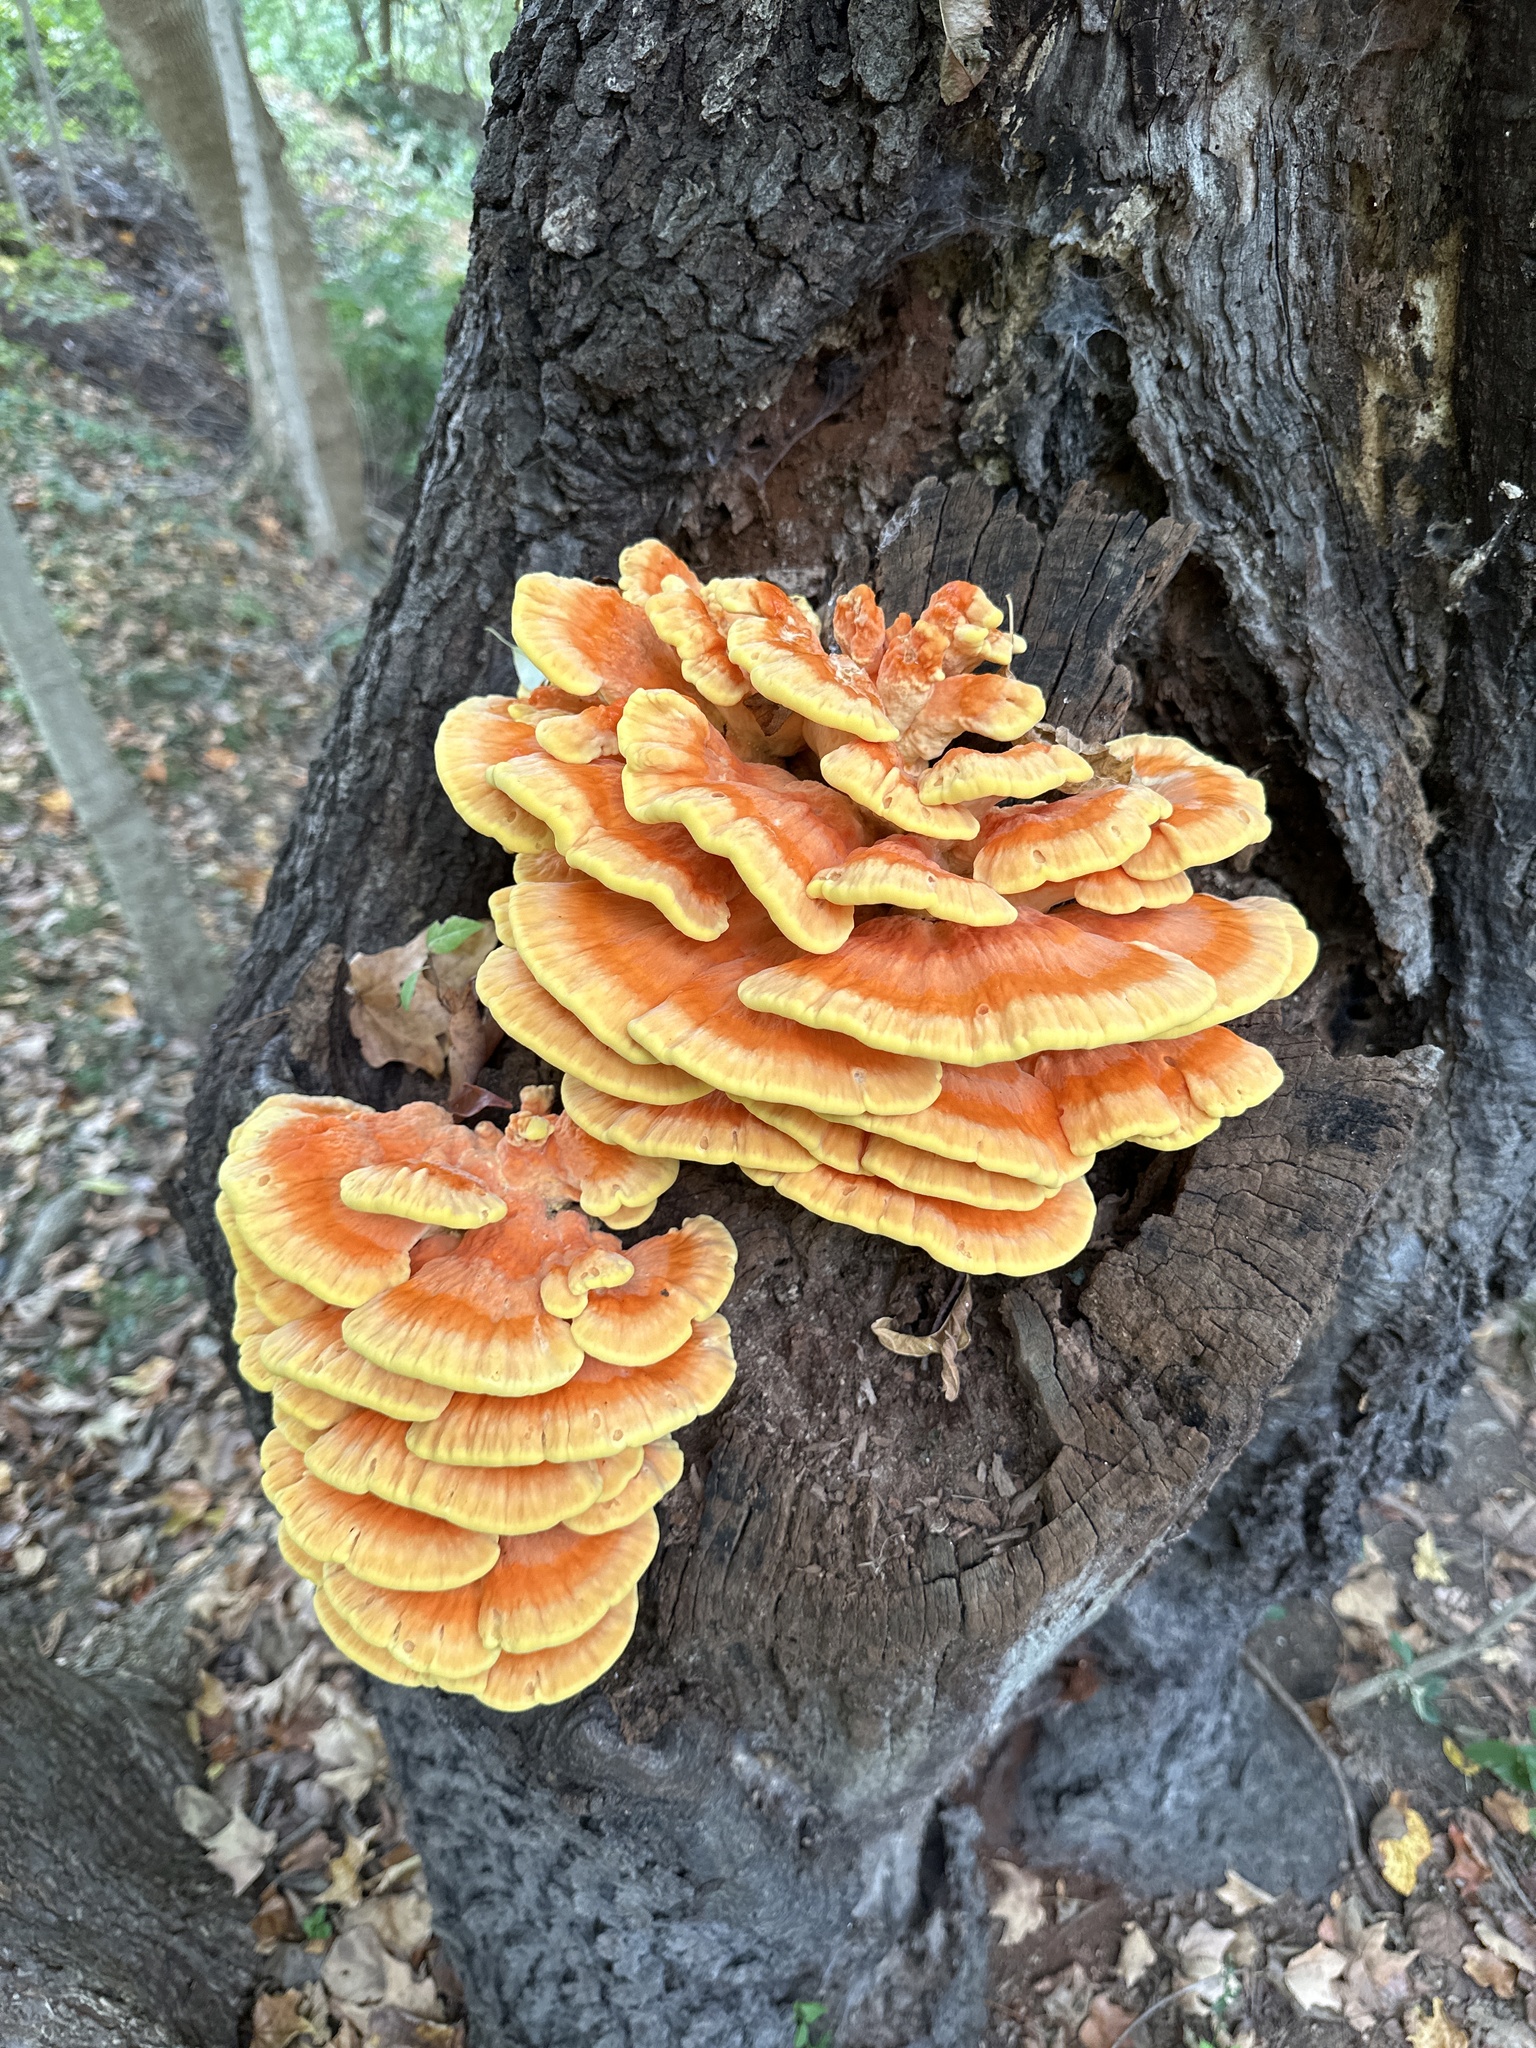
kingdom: Fungi
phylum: Basidiomycota
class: Agaricomycetes
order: Polyporales
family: Laetiporaceae
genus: Laetiporus
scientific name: Laetiporus sulphureus
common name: Chicken of the woods
